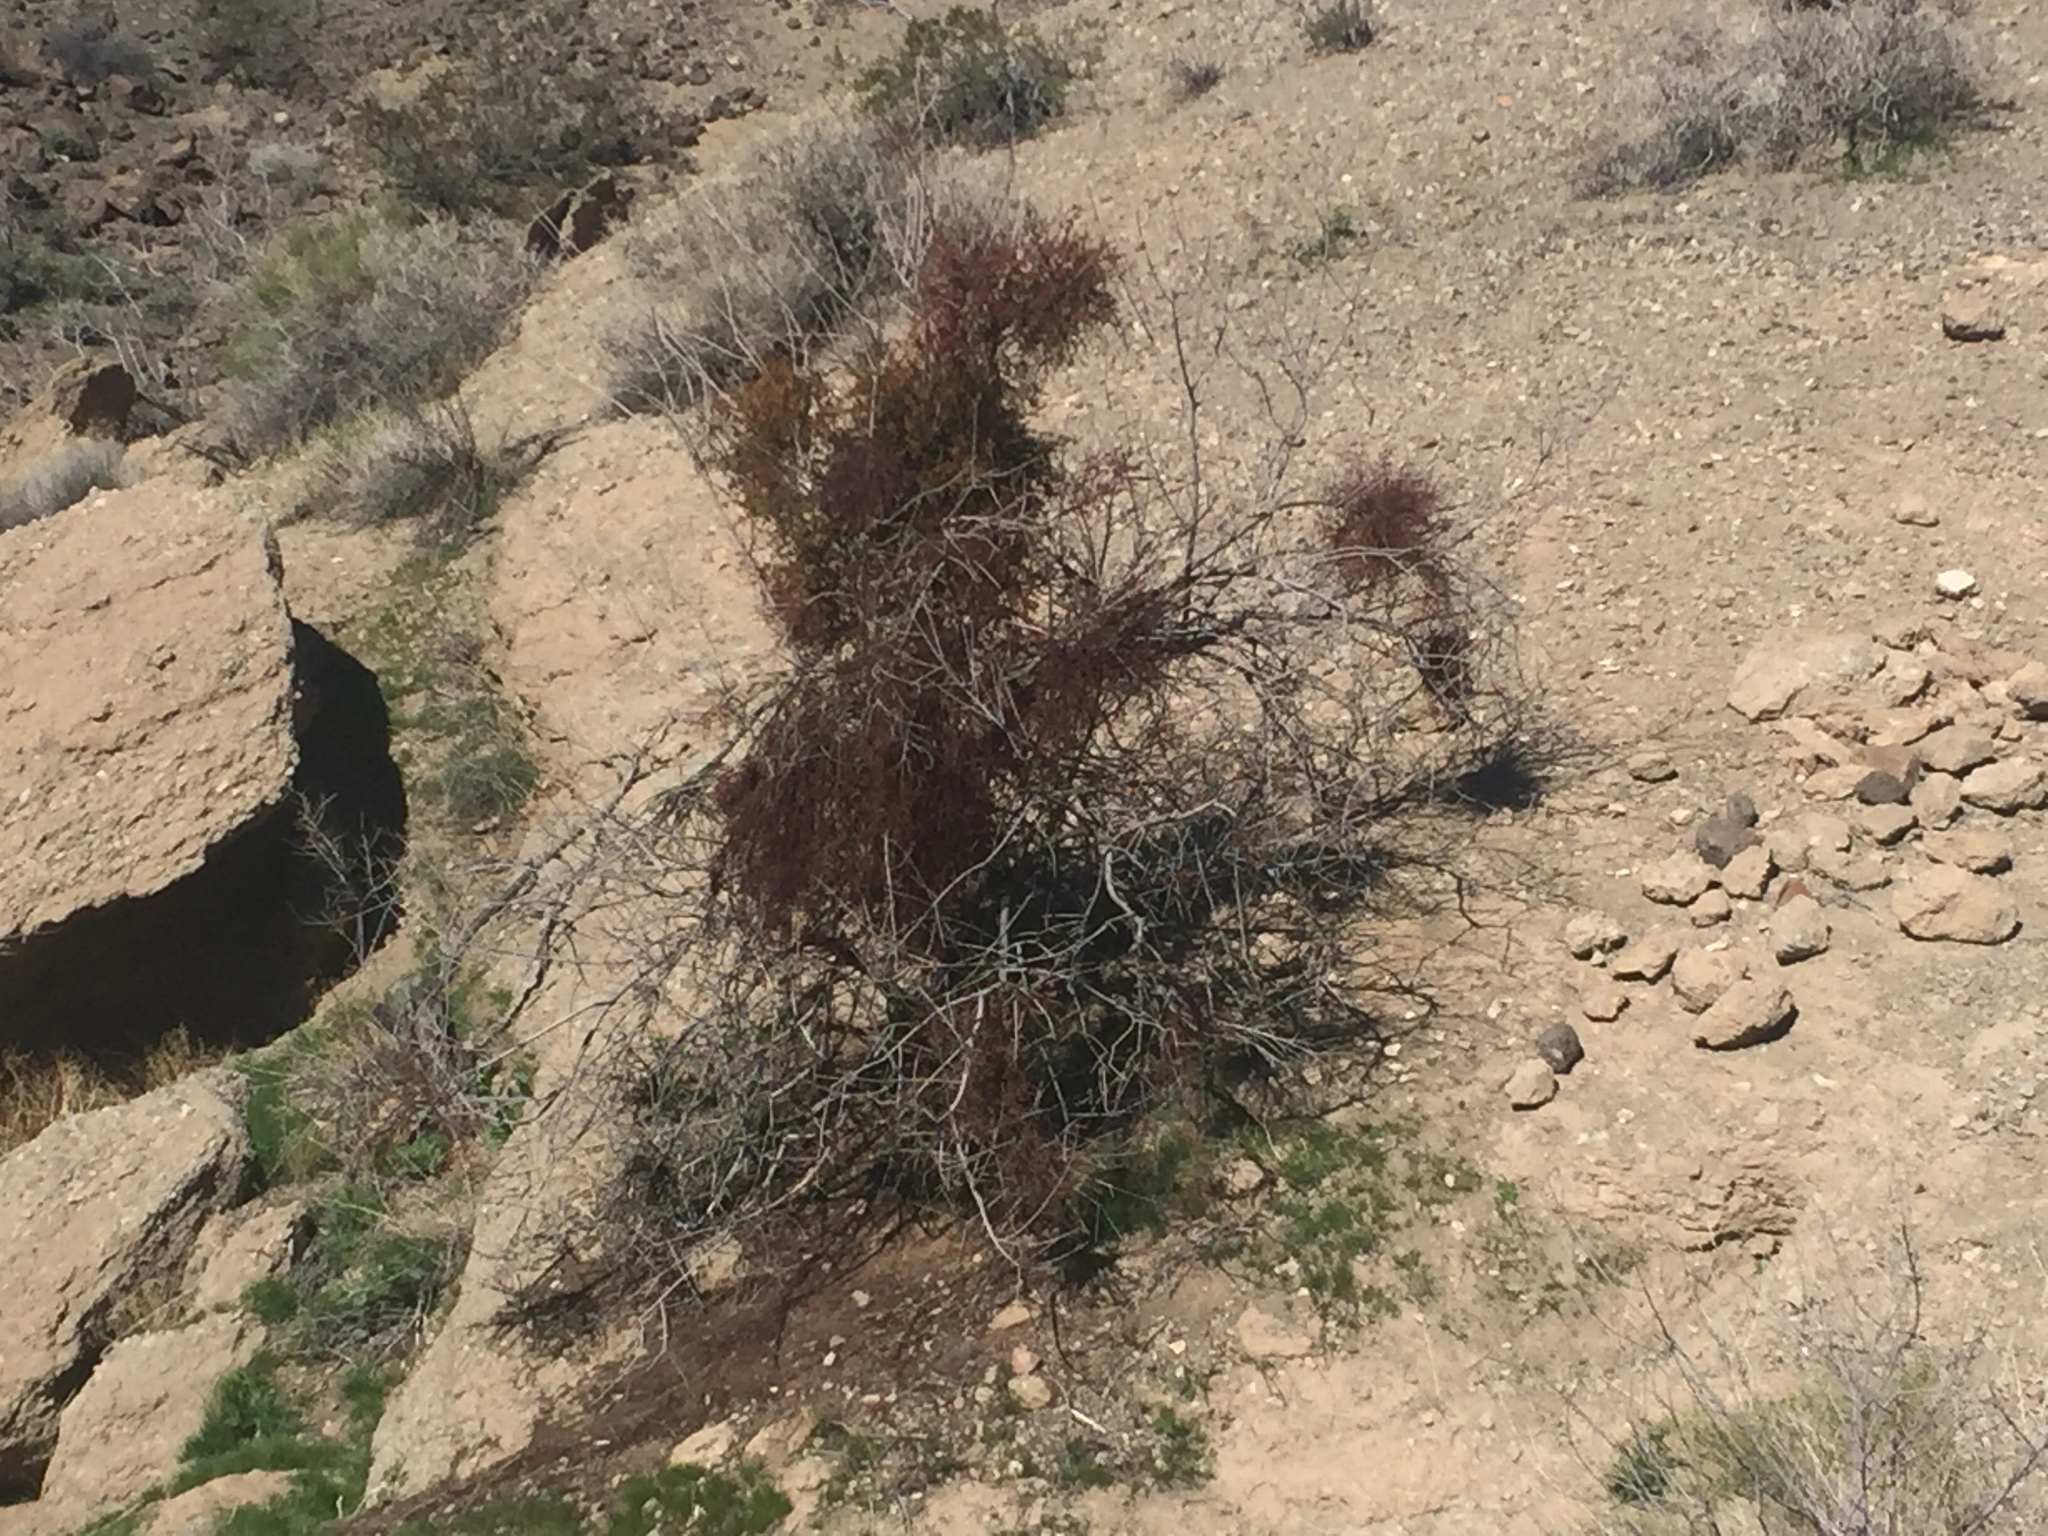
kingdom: Plantae
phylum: Tracheophyta
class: Magnoliopsida
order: Santalales
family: Viscaceae
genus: Phoradendron
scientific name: Phoradendron californicum
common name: Acacia mistletoe
